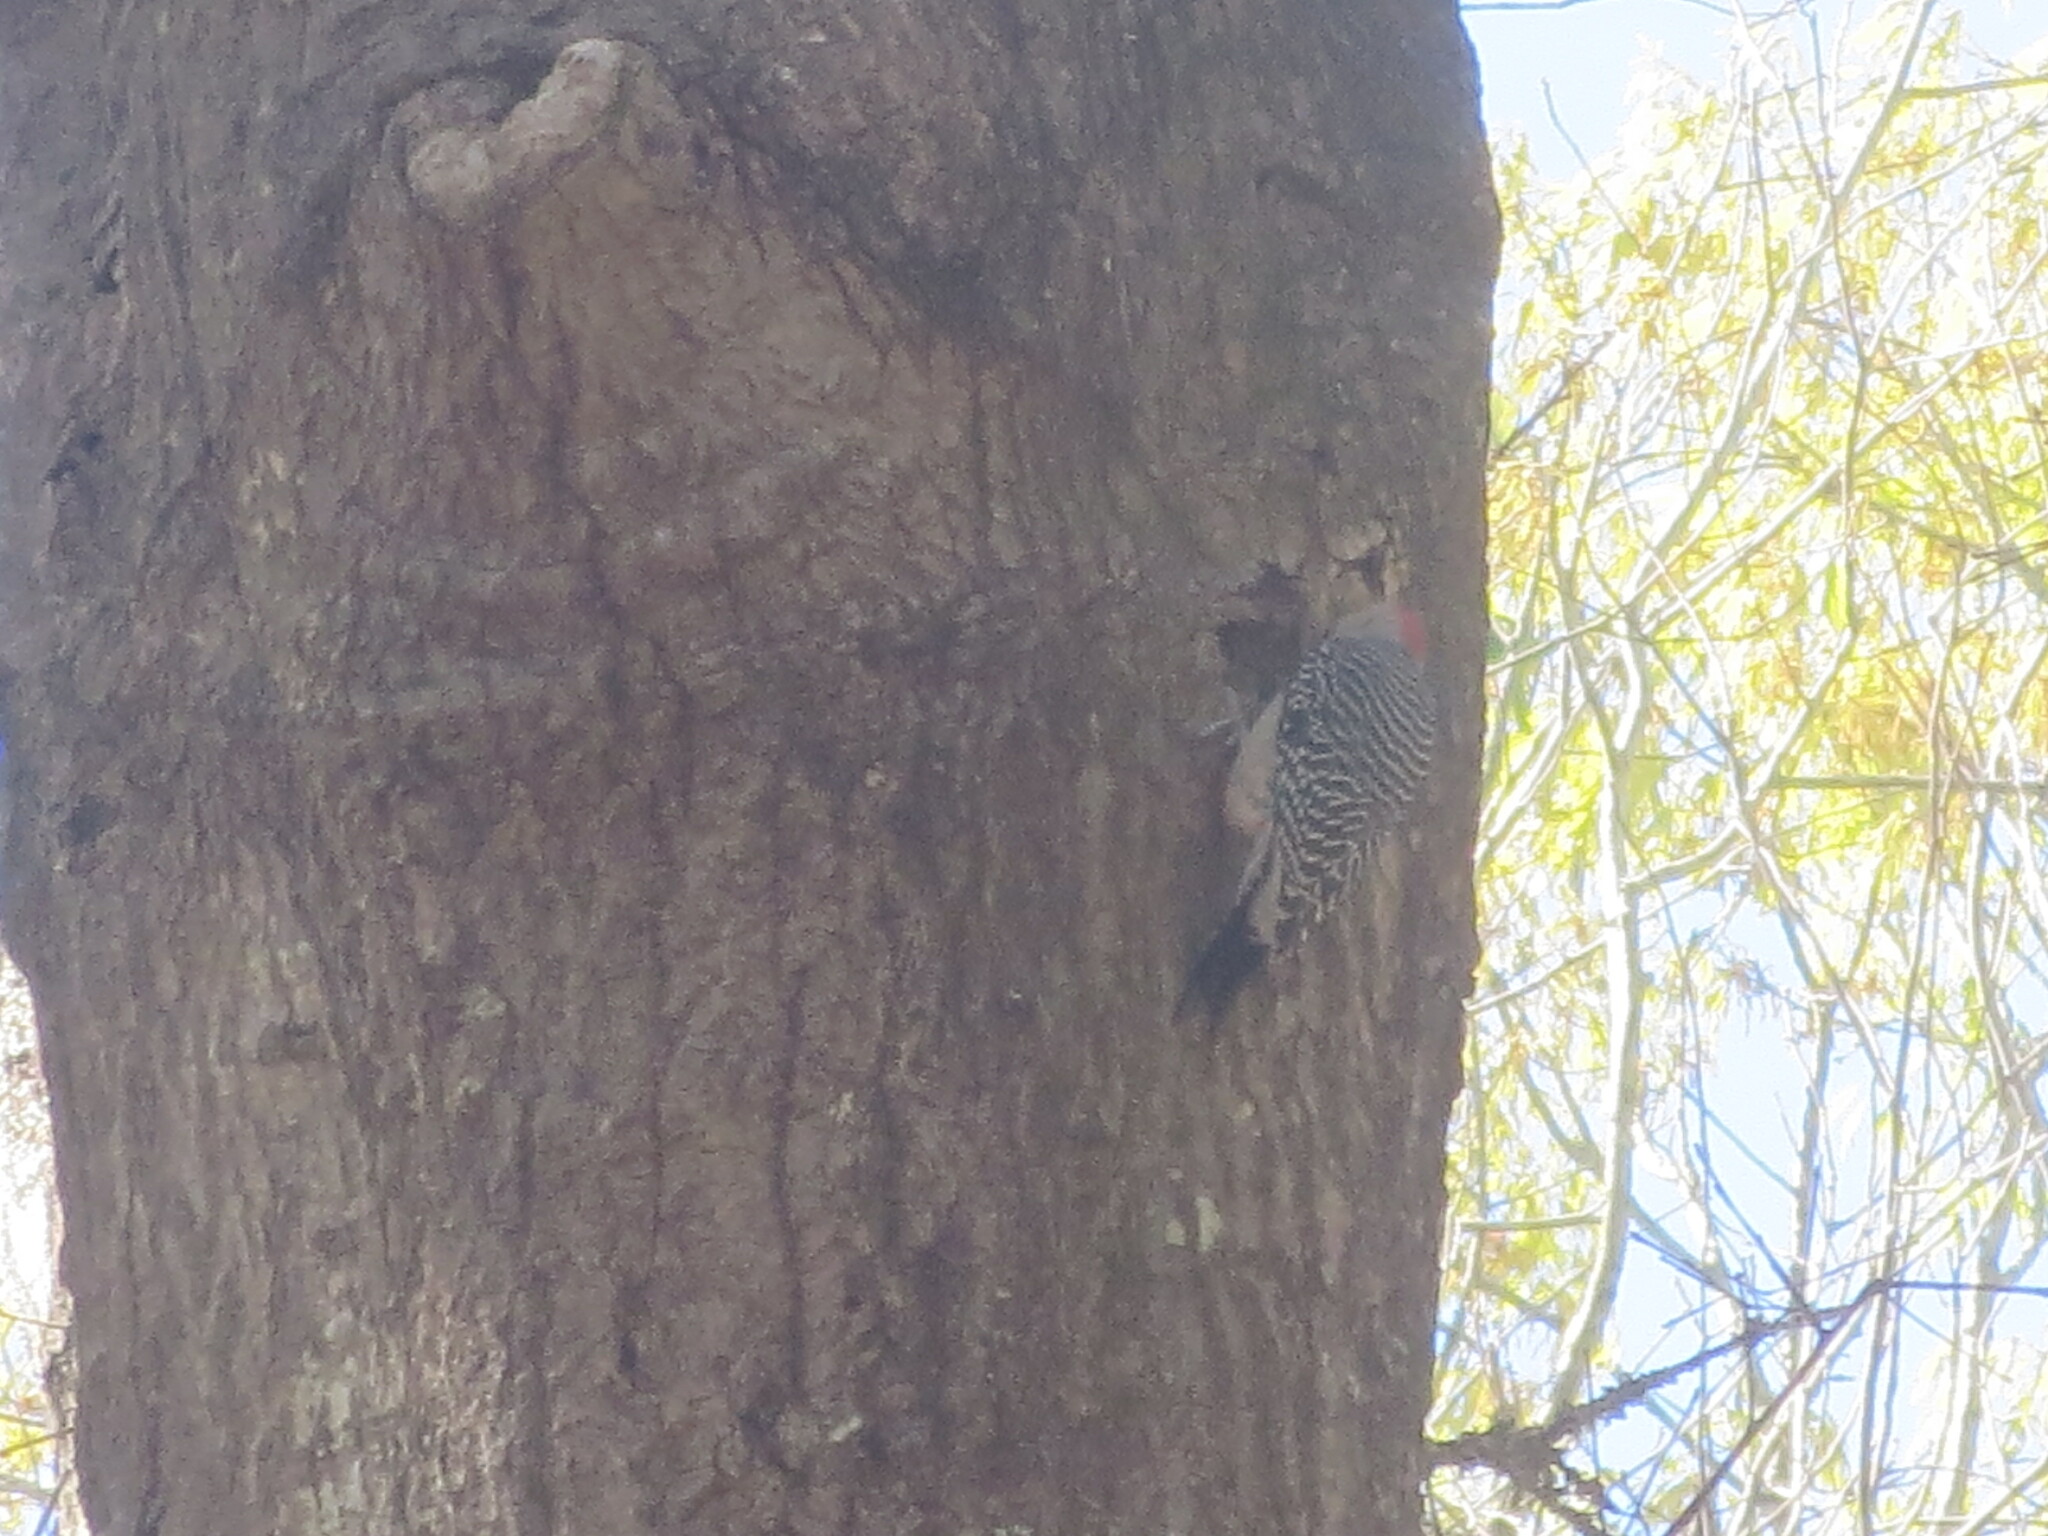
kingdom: Animalia
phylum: Chordata
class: Aves
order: Piciformes
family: Picidae
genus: Melanerpes
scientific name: Melanerpes carolinus
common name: Red-bellied woodpecker
